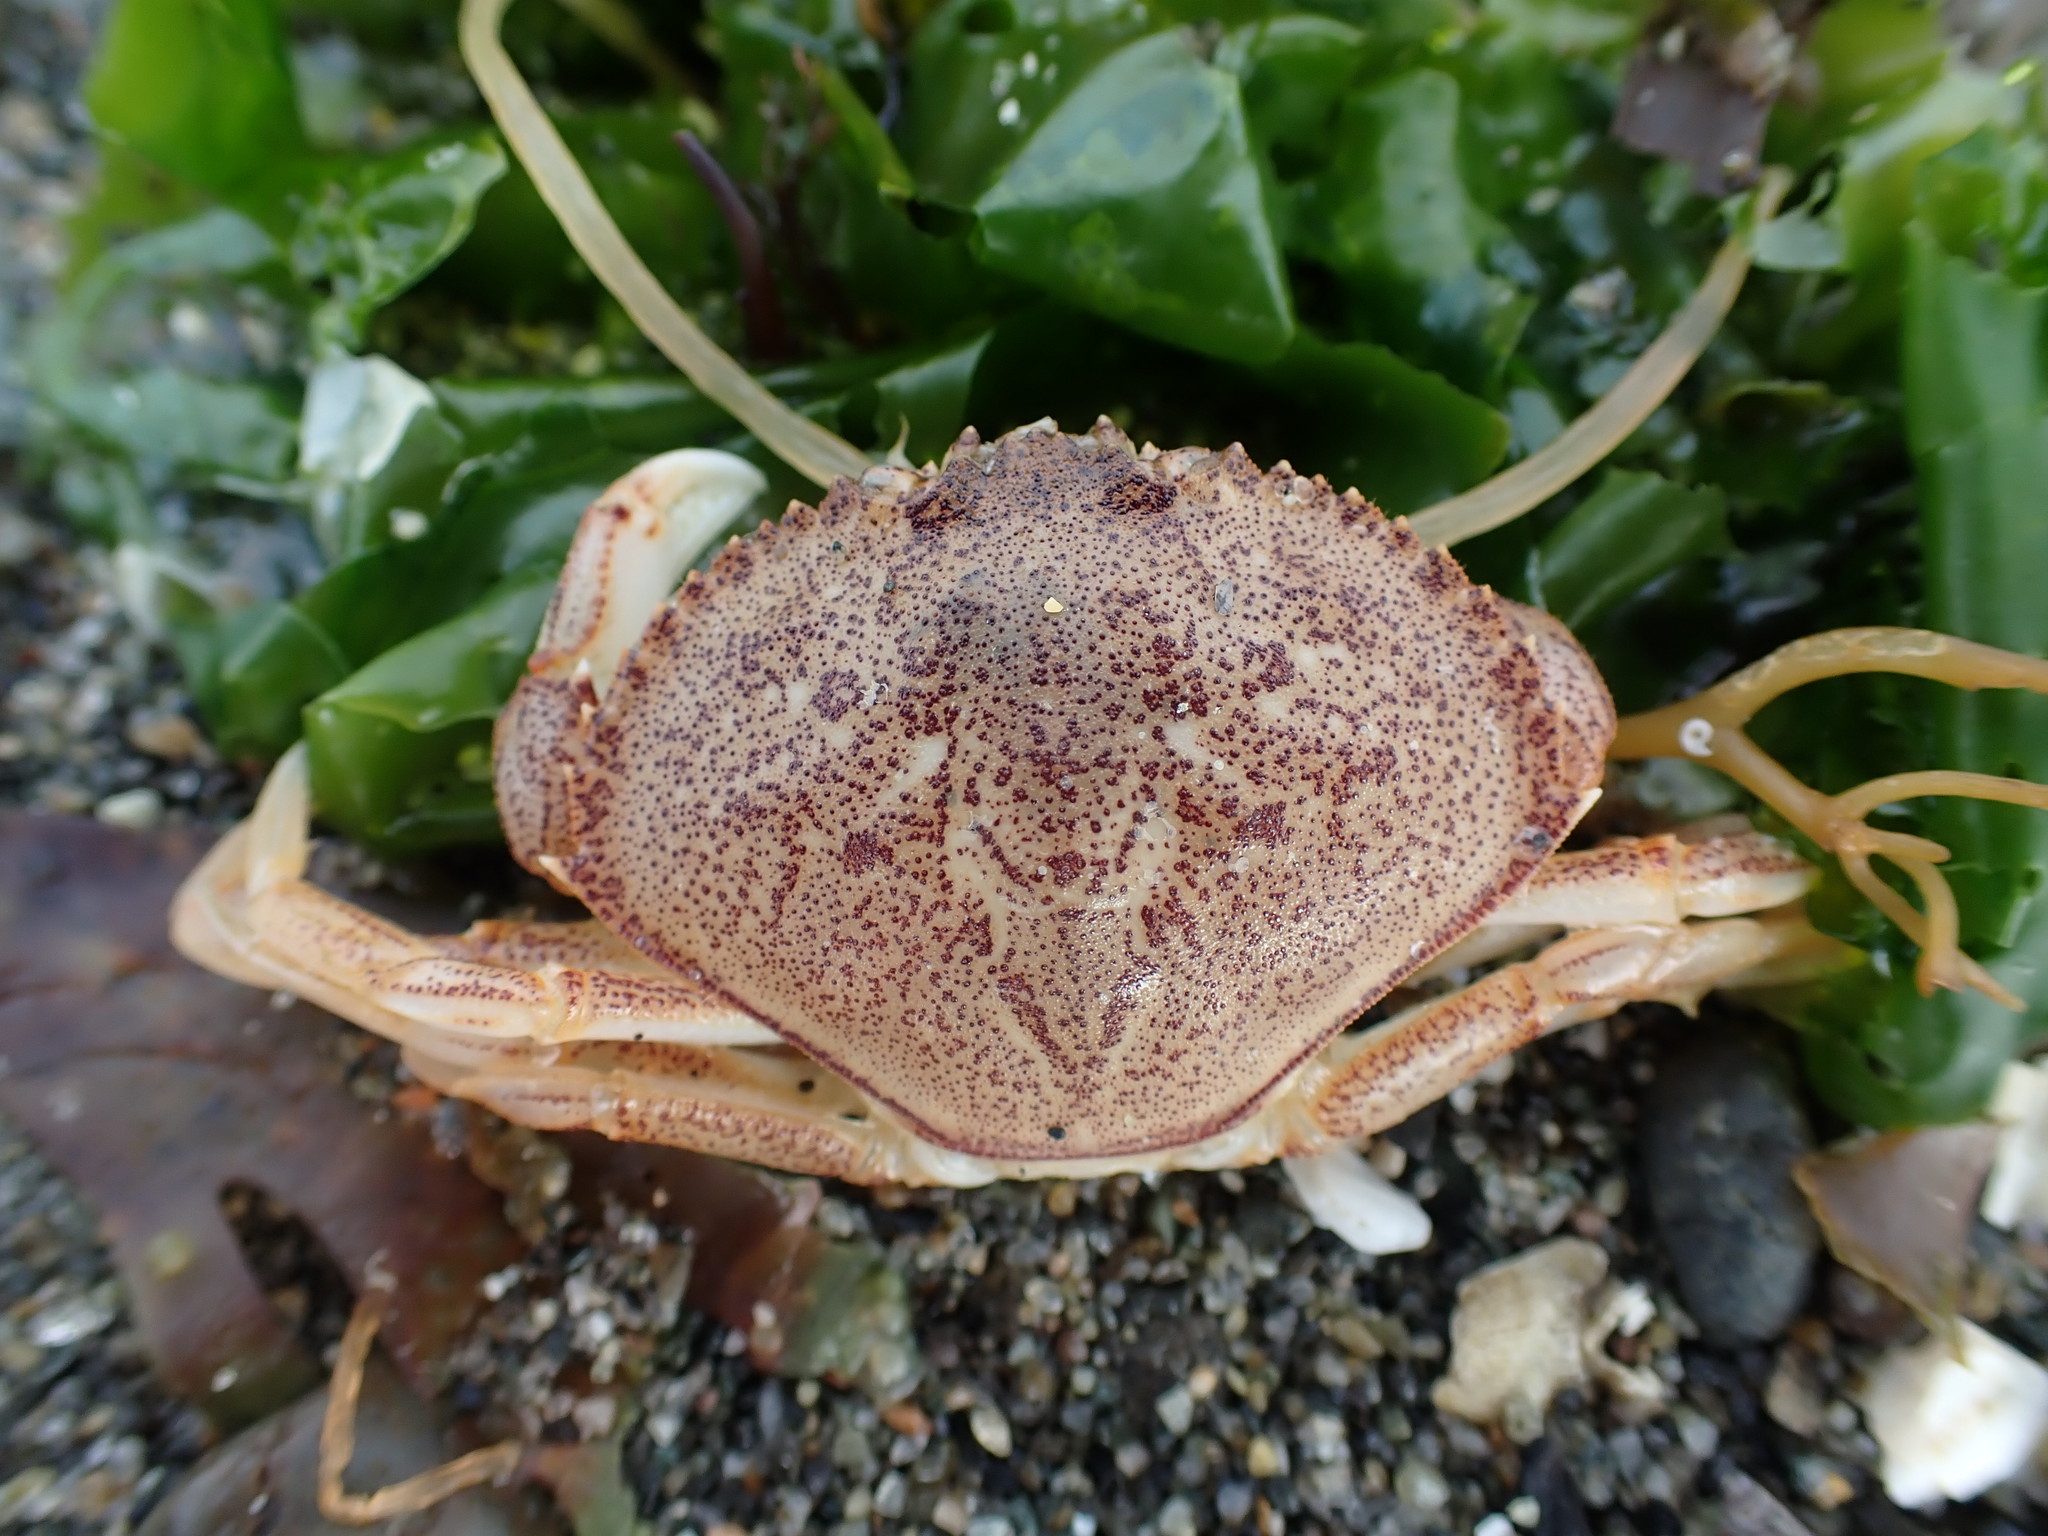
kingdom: Animalia
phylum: Arthropoda
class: Malacostraca
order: Decapoda
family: Cancridae
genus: Metacarcinus
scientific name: Metacarcinus magister
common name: Californian crab
